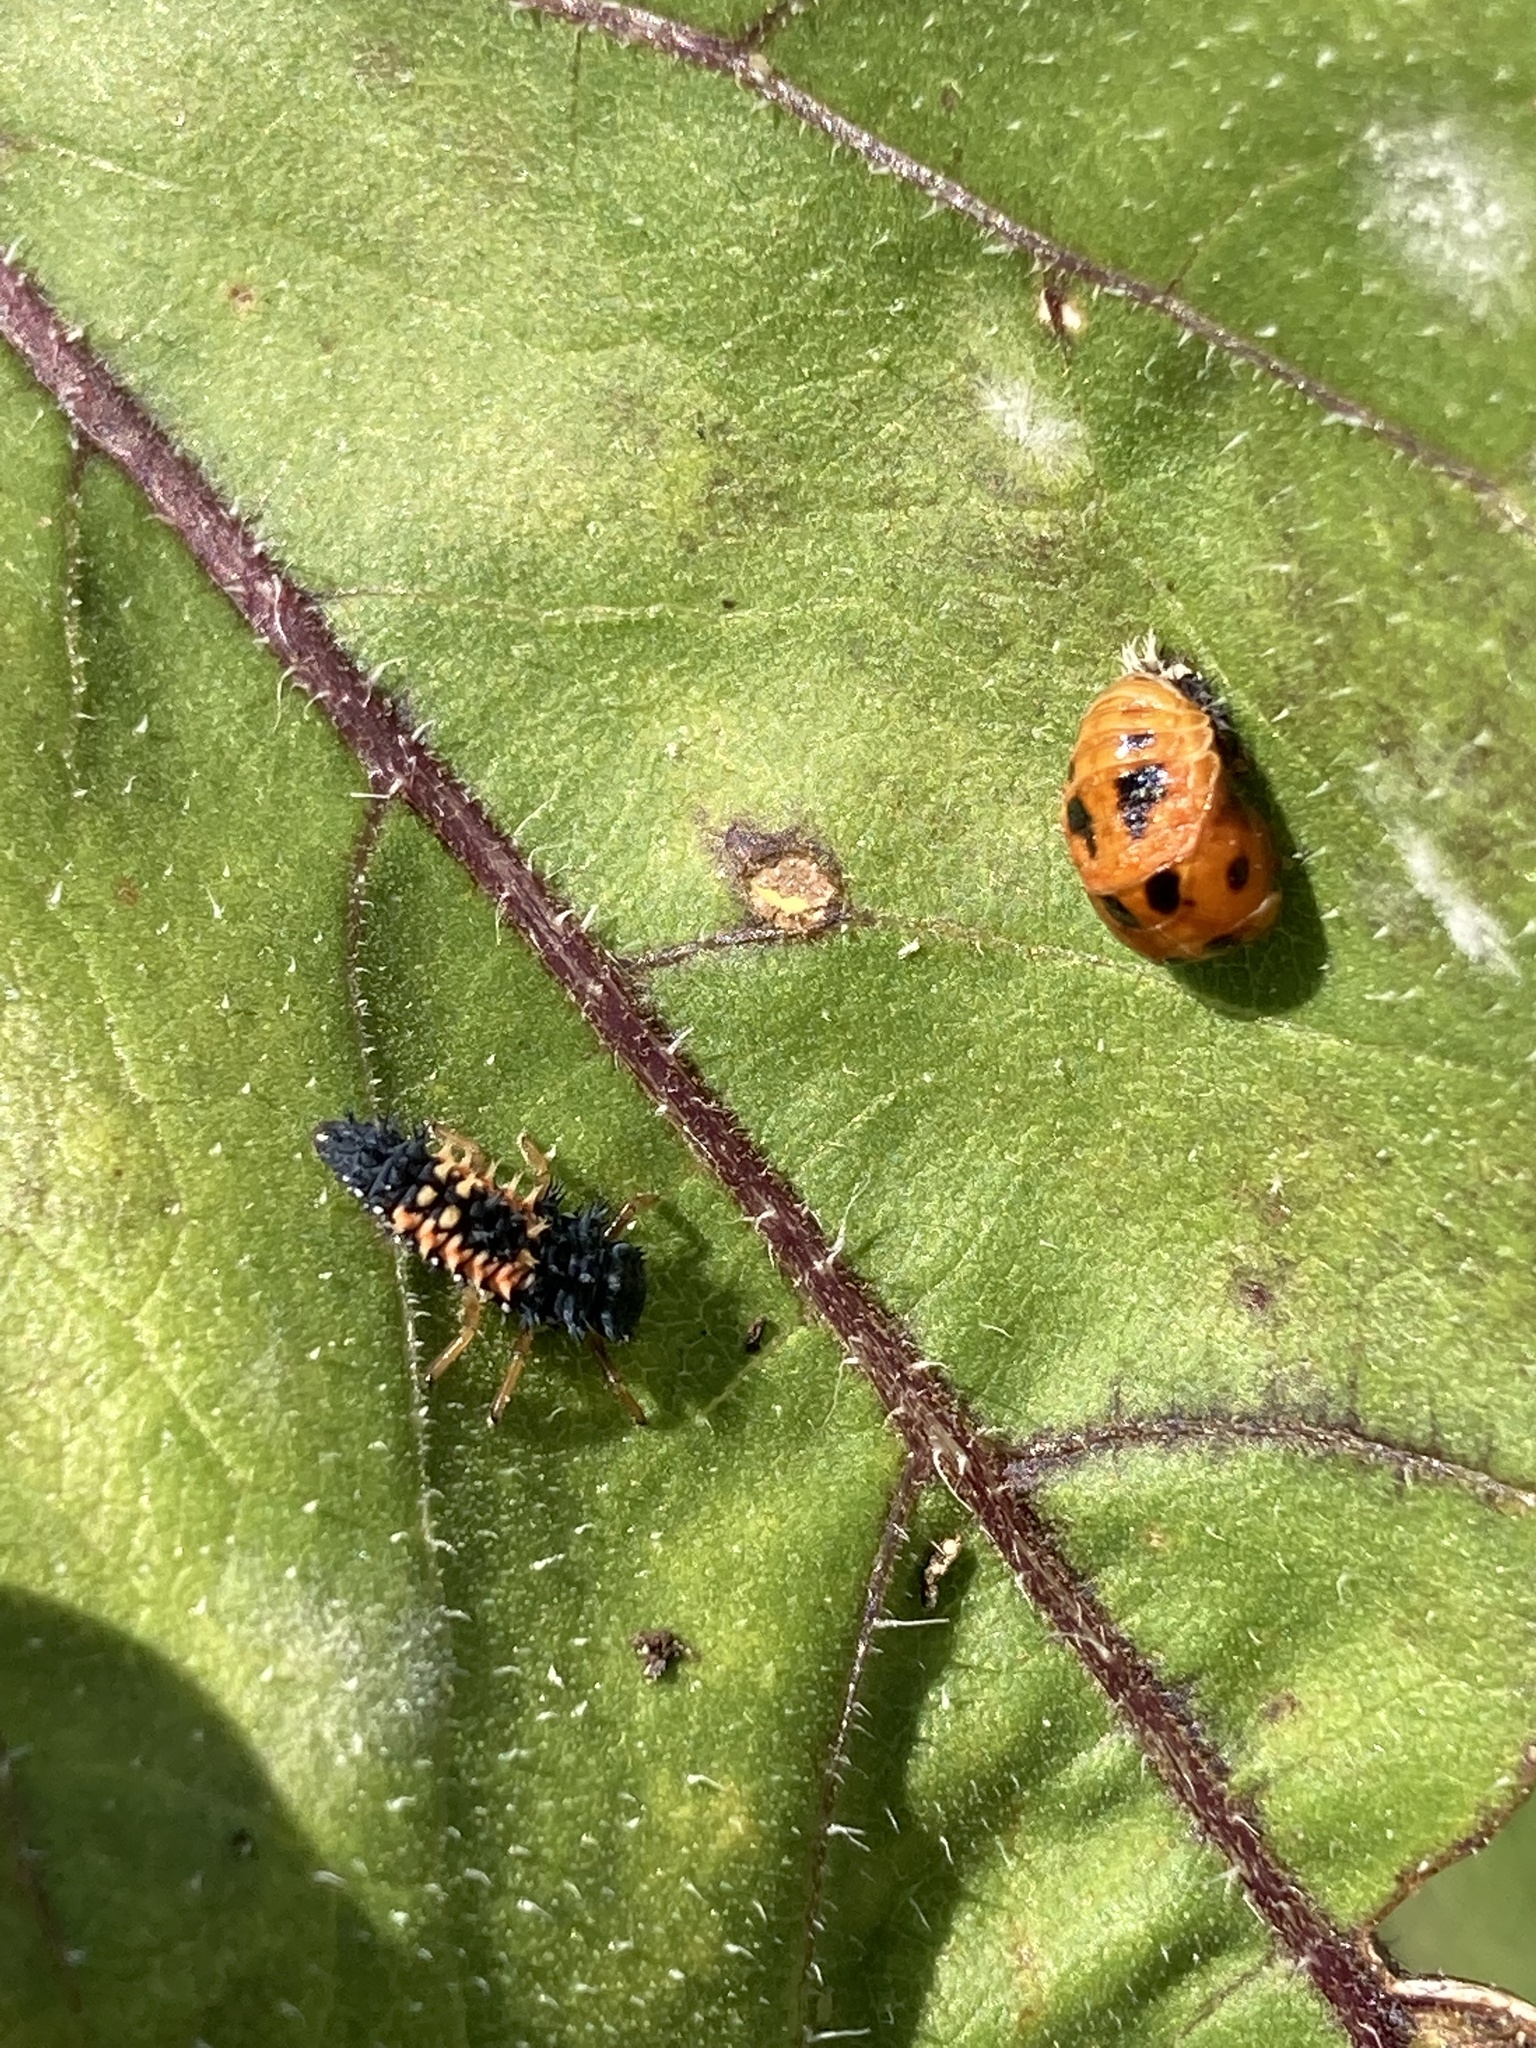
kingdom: Animalia
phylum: Arthropoda
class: Insecta
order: Coleoptera
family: Coccinellidae
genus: Harmonia
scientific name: Harmonia axyridis
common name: Harlequin ladybird
